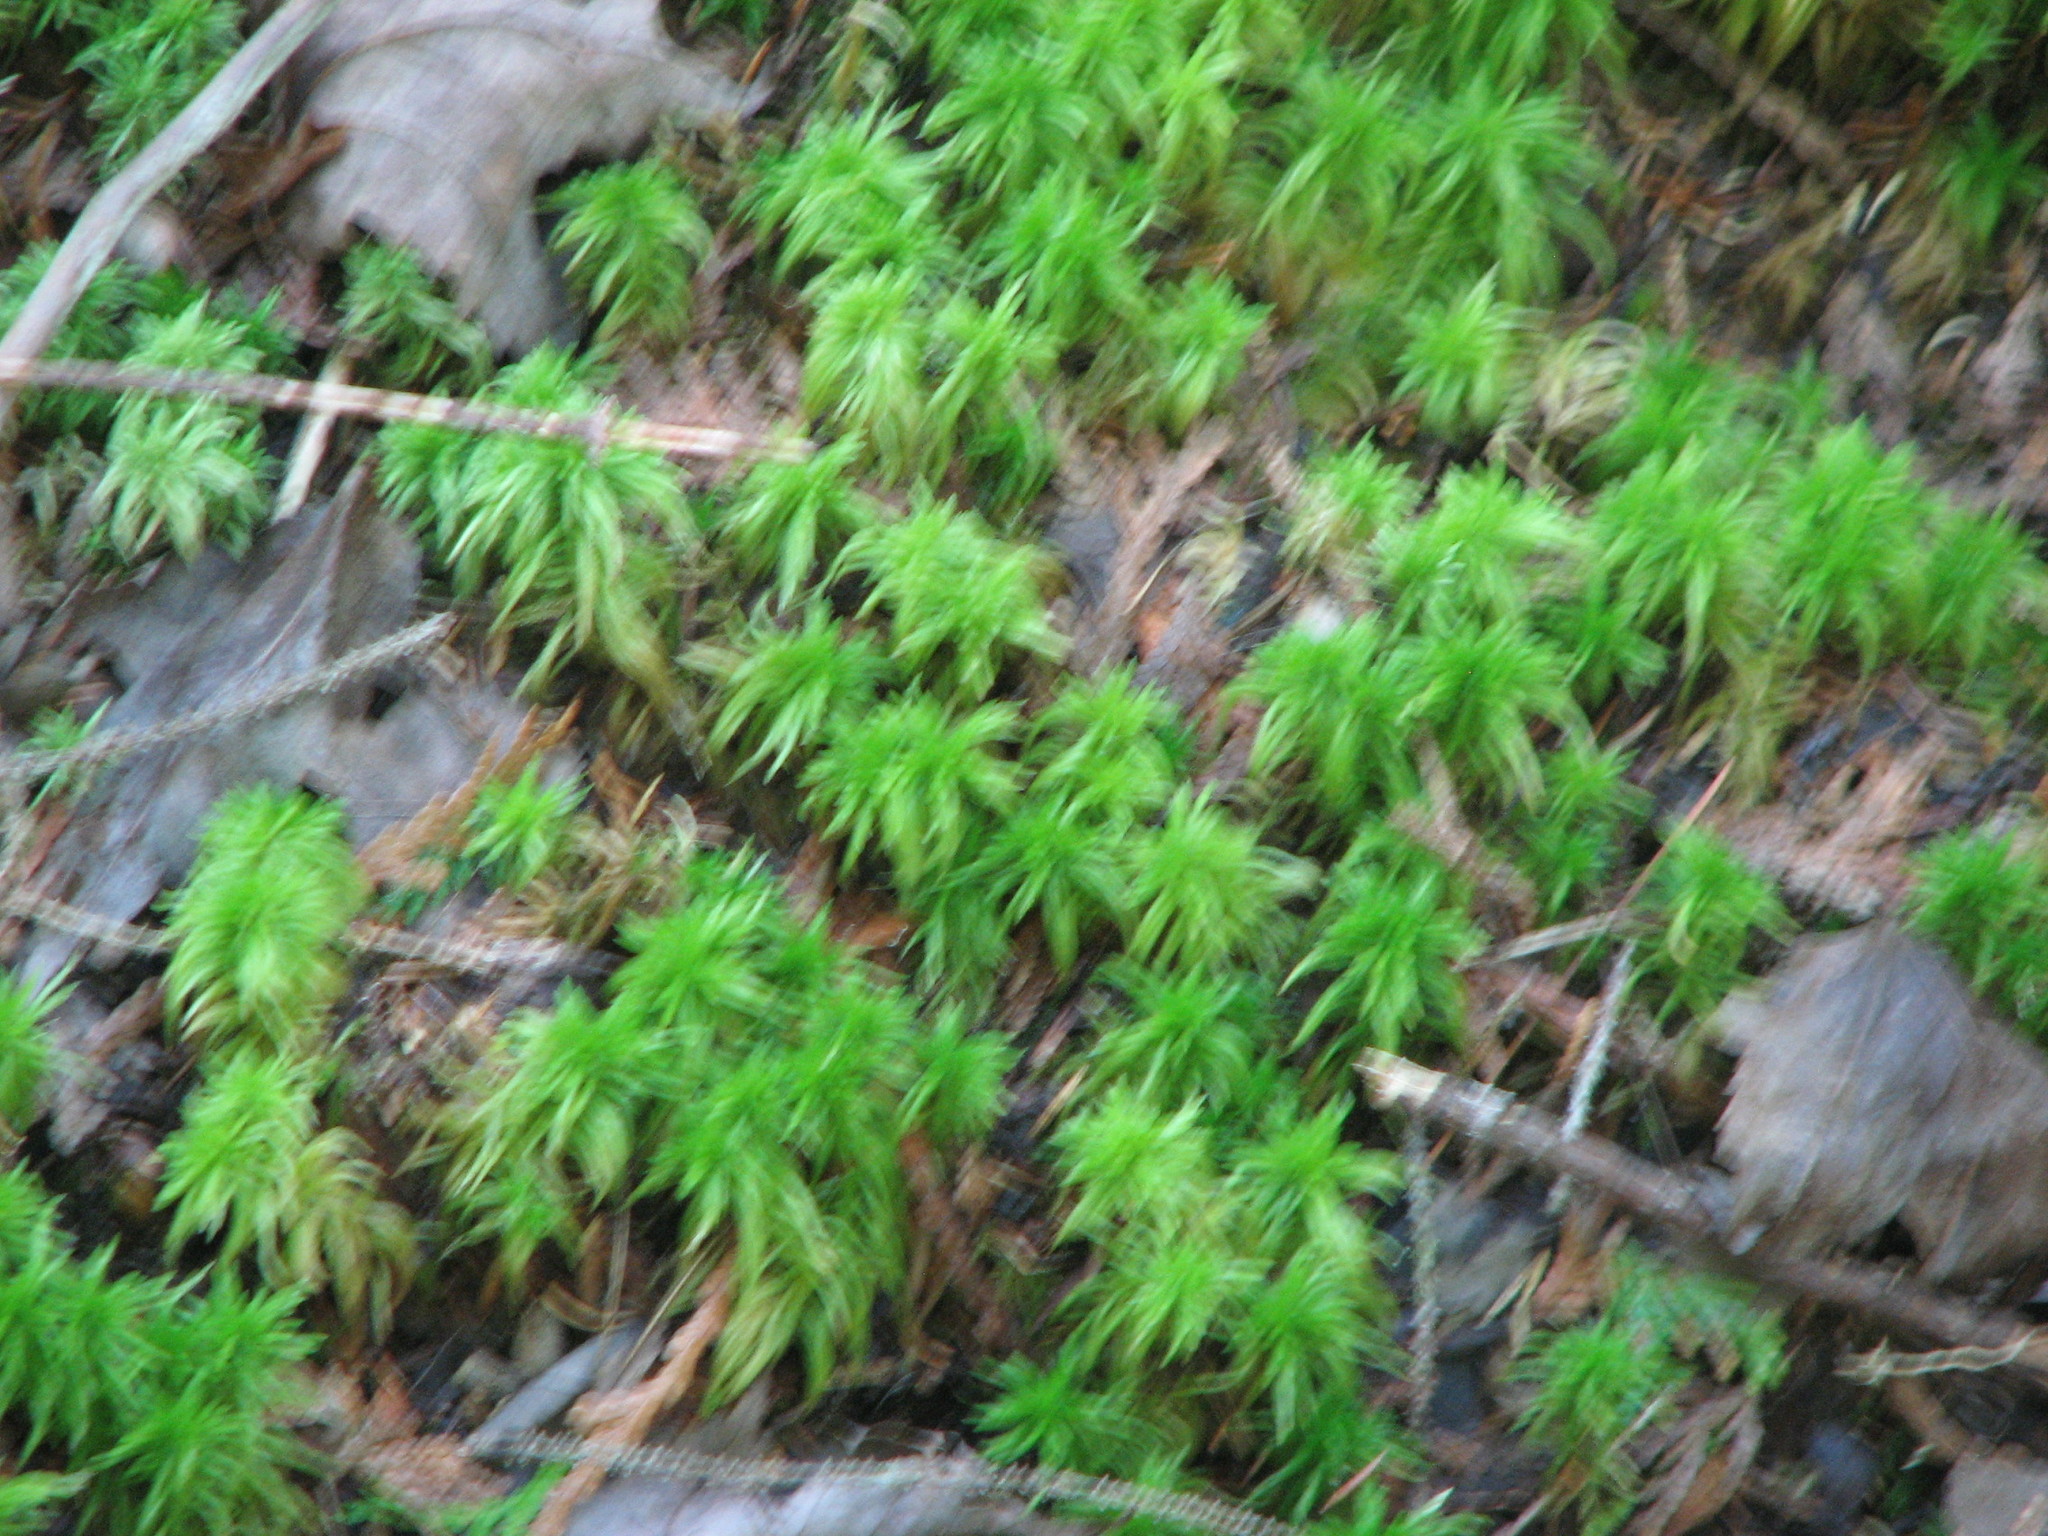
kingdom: Plantae
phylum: Bryophyta
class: Sphagnopsida
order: Sphagnales
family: Sphagnaceae
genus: Sphagnum
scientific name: Sphagnum
